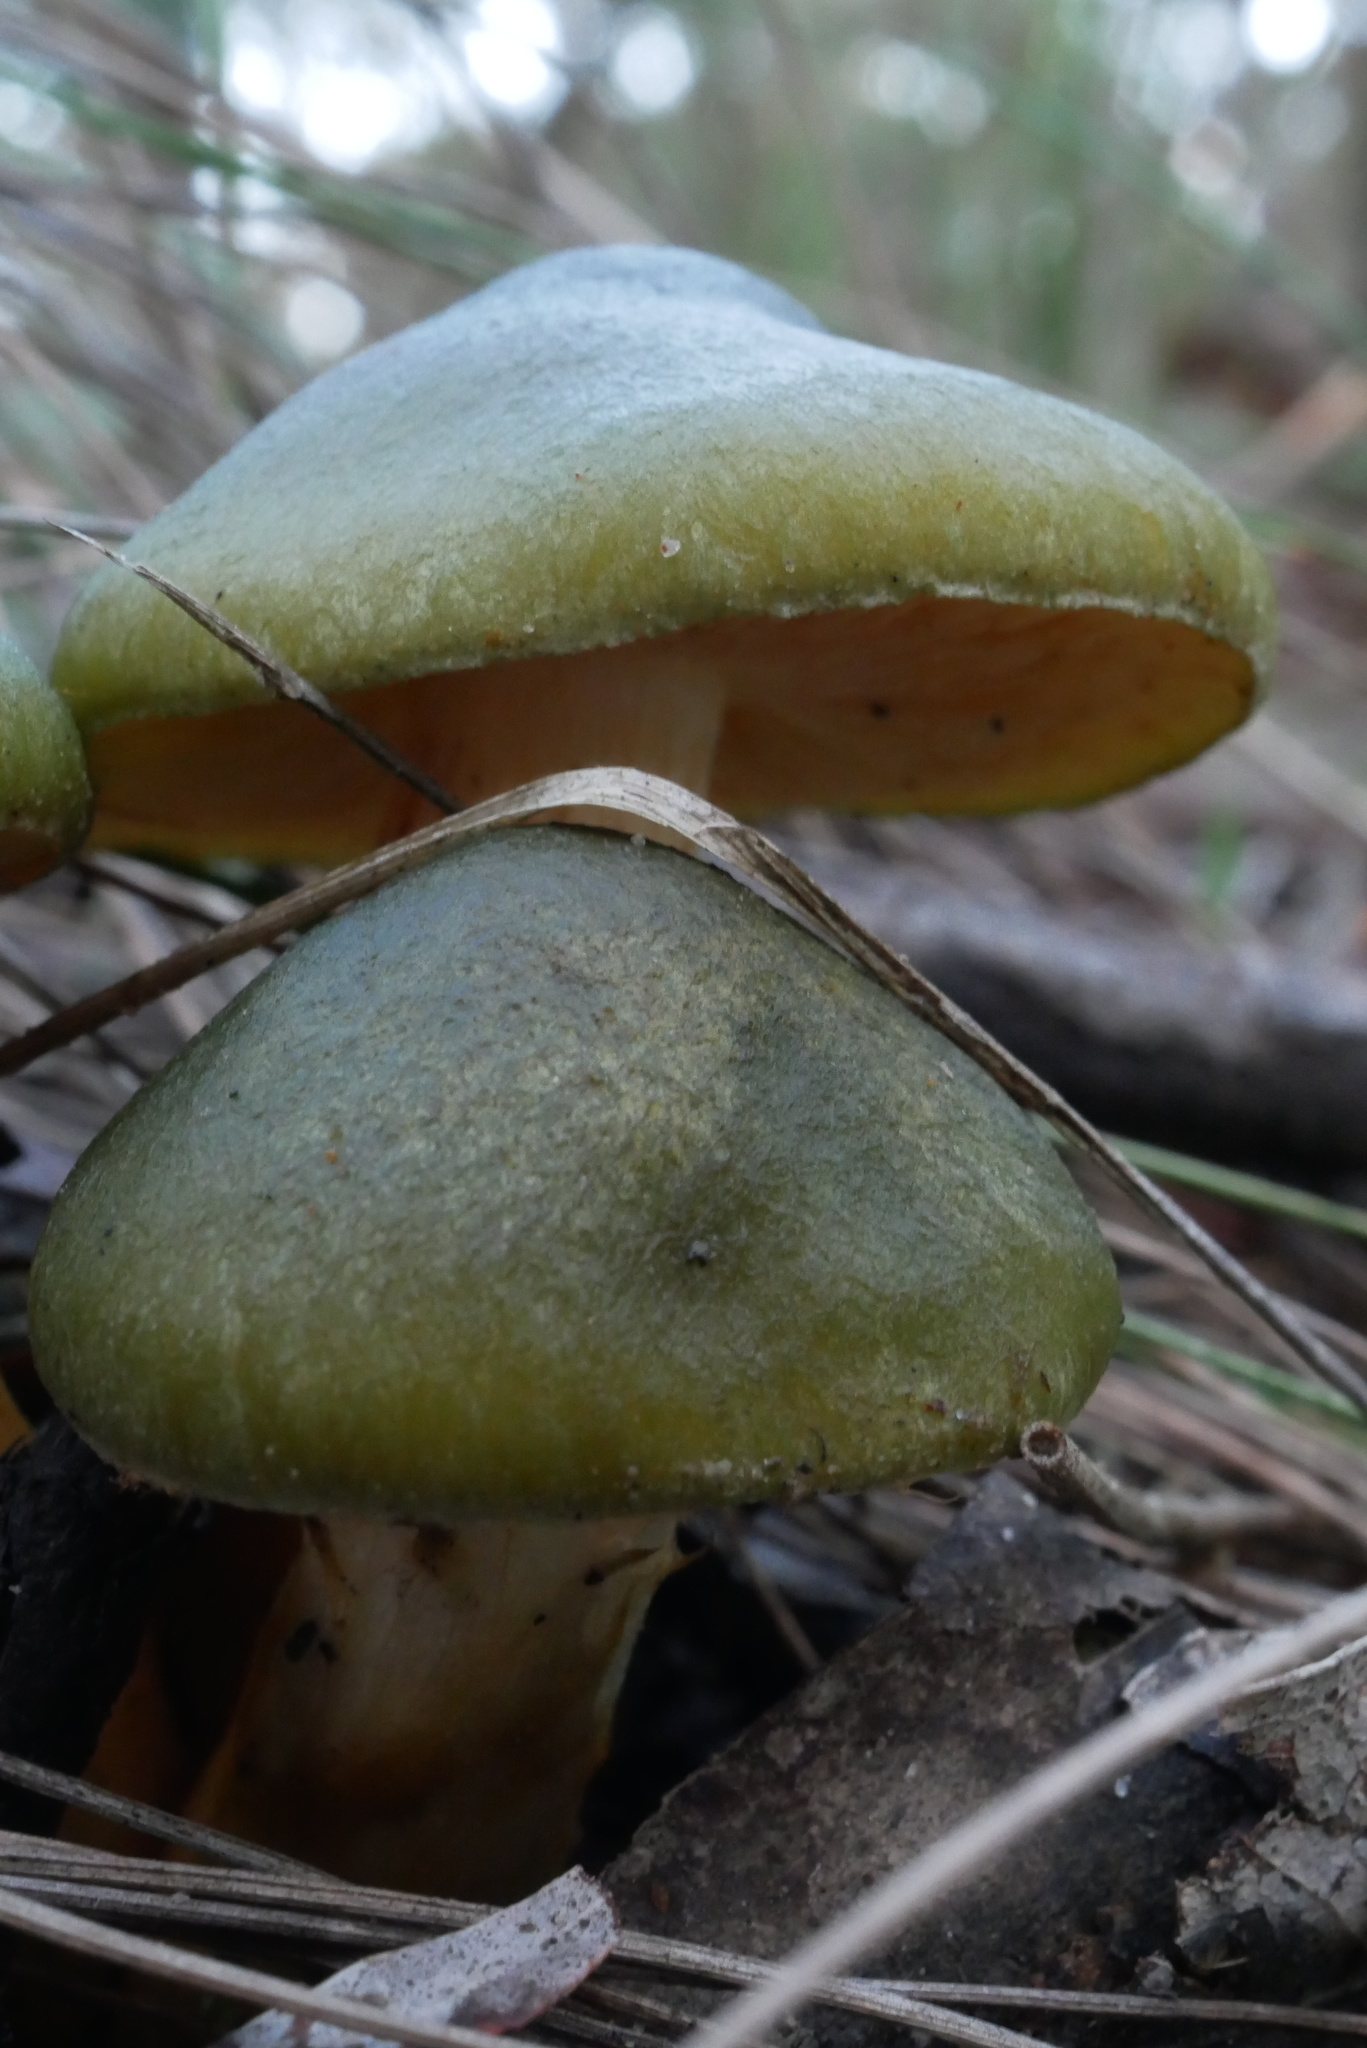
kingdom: Fungi
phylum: Basidiomycota
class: Agaricomycetes
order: Agaricales
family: Cortinariaceae
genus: Cortinarius
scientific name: Cortinarius austrovenetus
